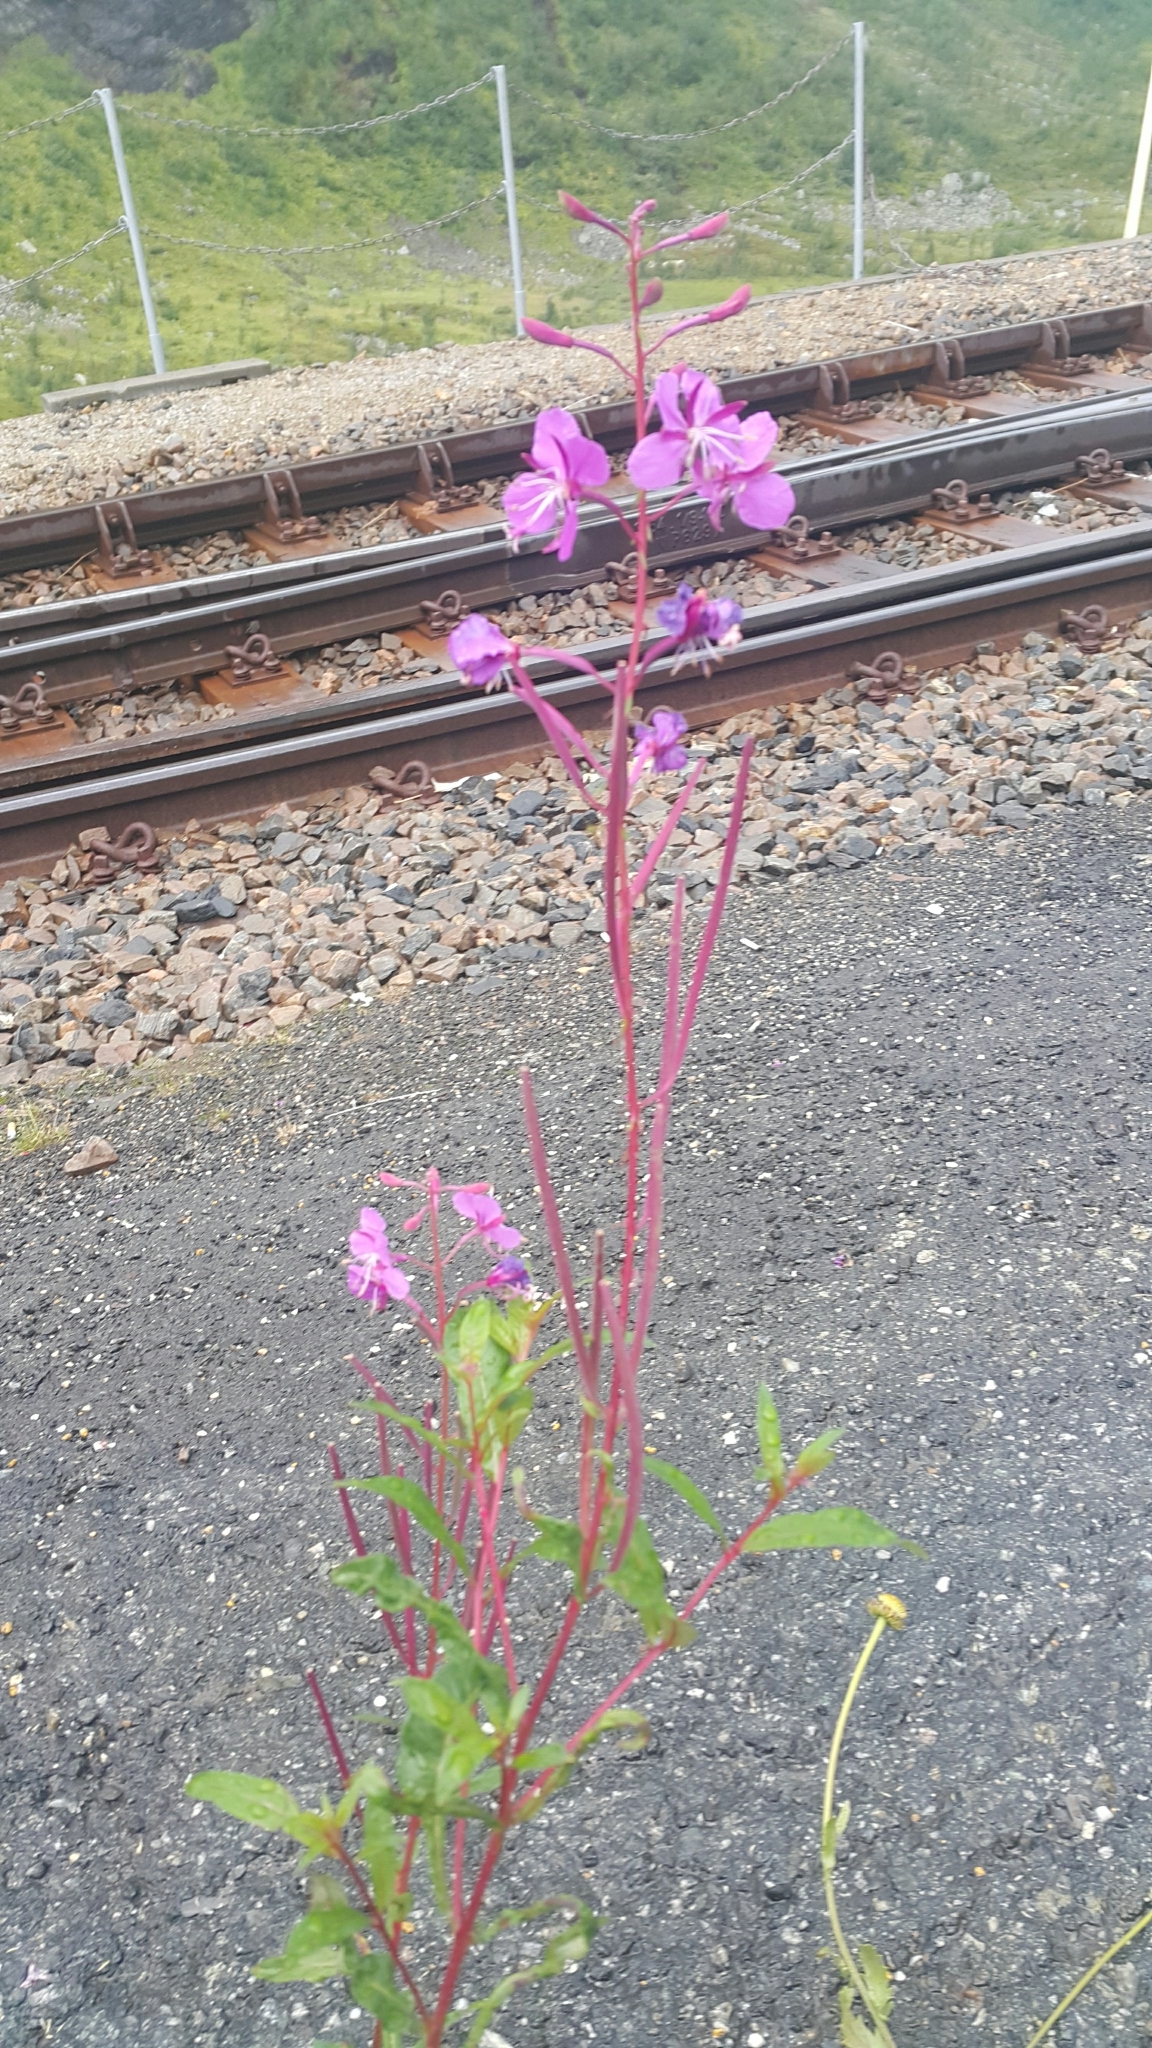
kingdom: Plantae
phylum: Tracheophyta
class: Magnoliopsida
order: Myrtales
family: Onagraceae
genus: Chamaenerion
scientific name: Chamaenerion angustifolium
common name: Fireweed
